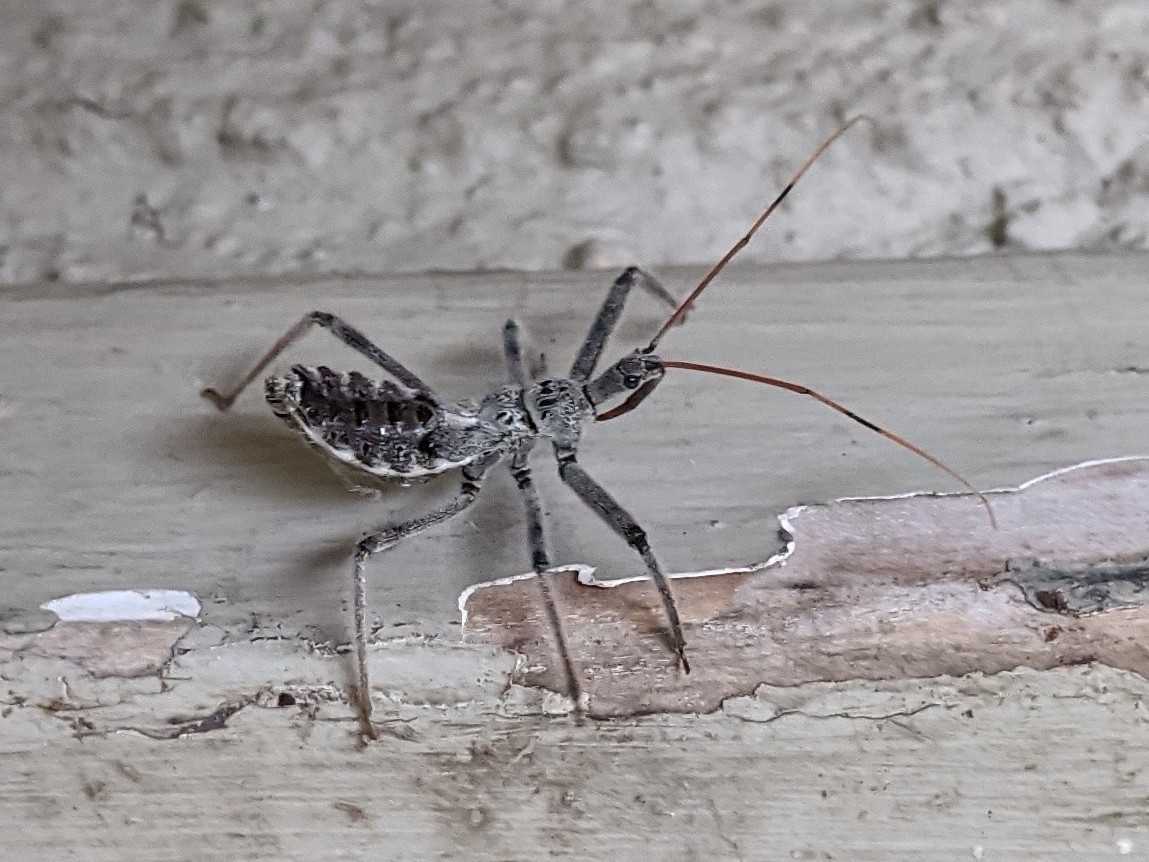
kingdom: Animalia
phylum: Arthropoda
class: Insecta
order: Hemiptera
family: Reduviidae
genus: Arilus
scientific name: Arilus cristatus
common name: North american wheel bug
